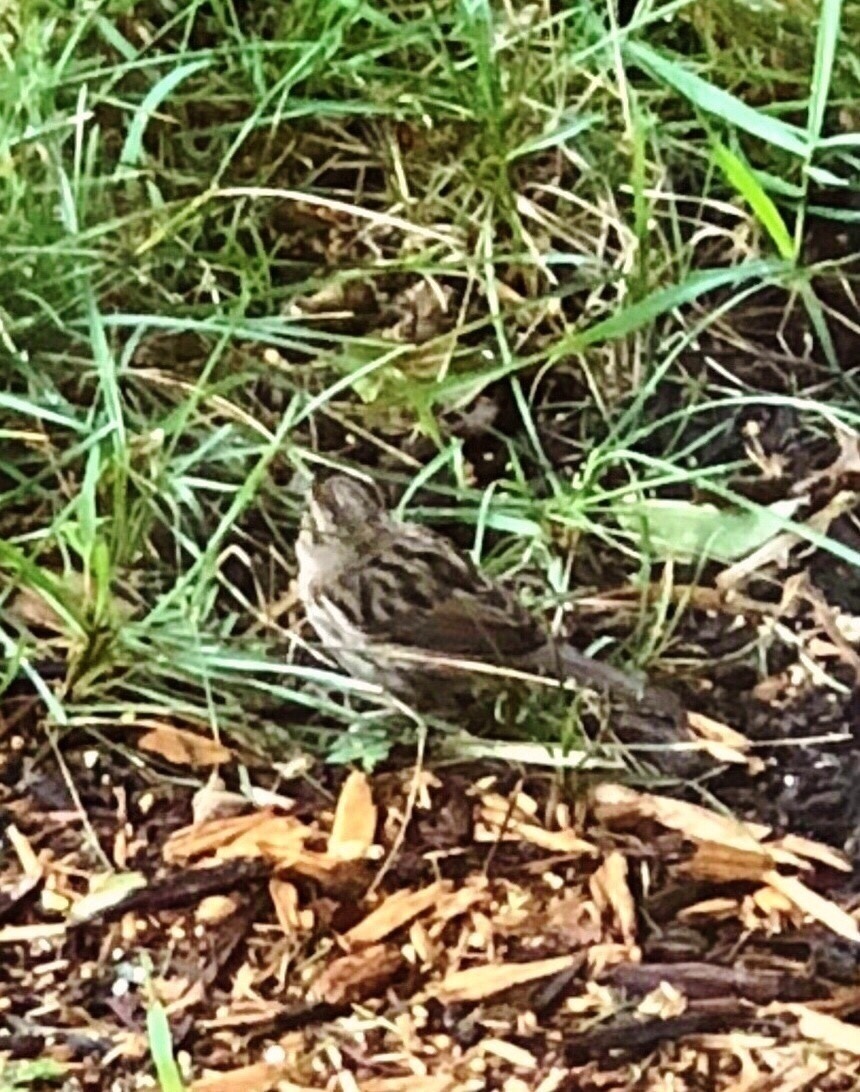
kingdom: Animalia
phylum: Chordata
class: Aves
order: Passeriformes
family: Passerellidae
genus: Melospiza
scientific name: Melospiza melodia
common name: Song sparrow
